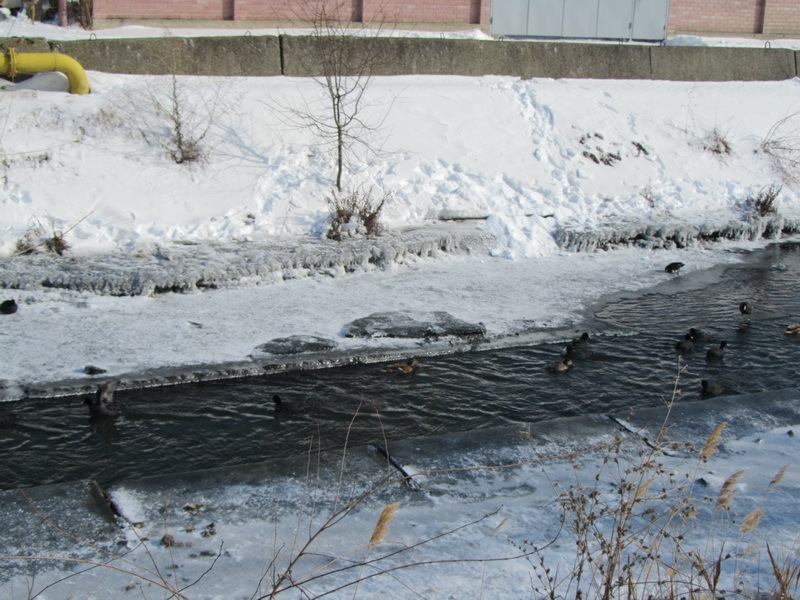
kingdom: Animalia
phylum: Chordata
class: Aves
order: Gruiformes
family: Rallidae
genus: Fulica
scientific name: Fulica atra
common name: Eurasian coot
